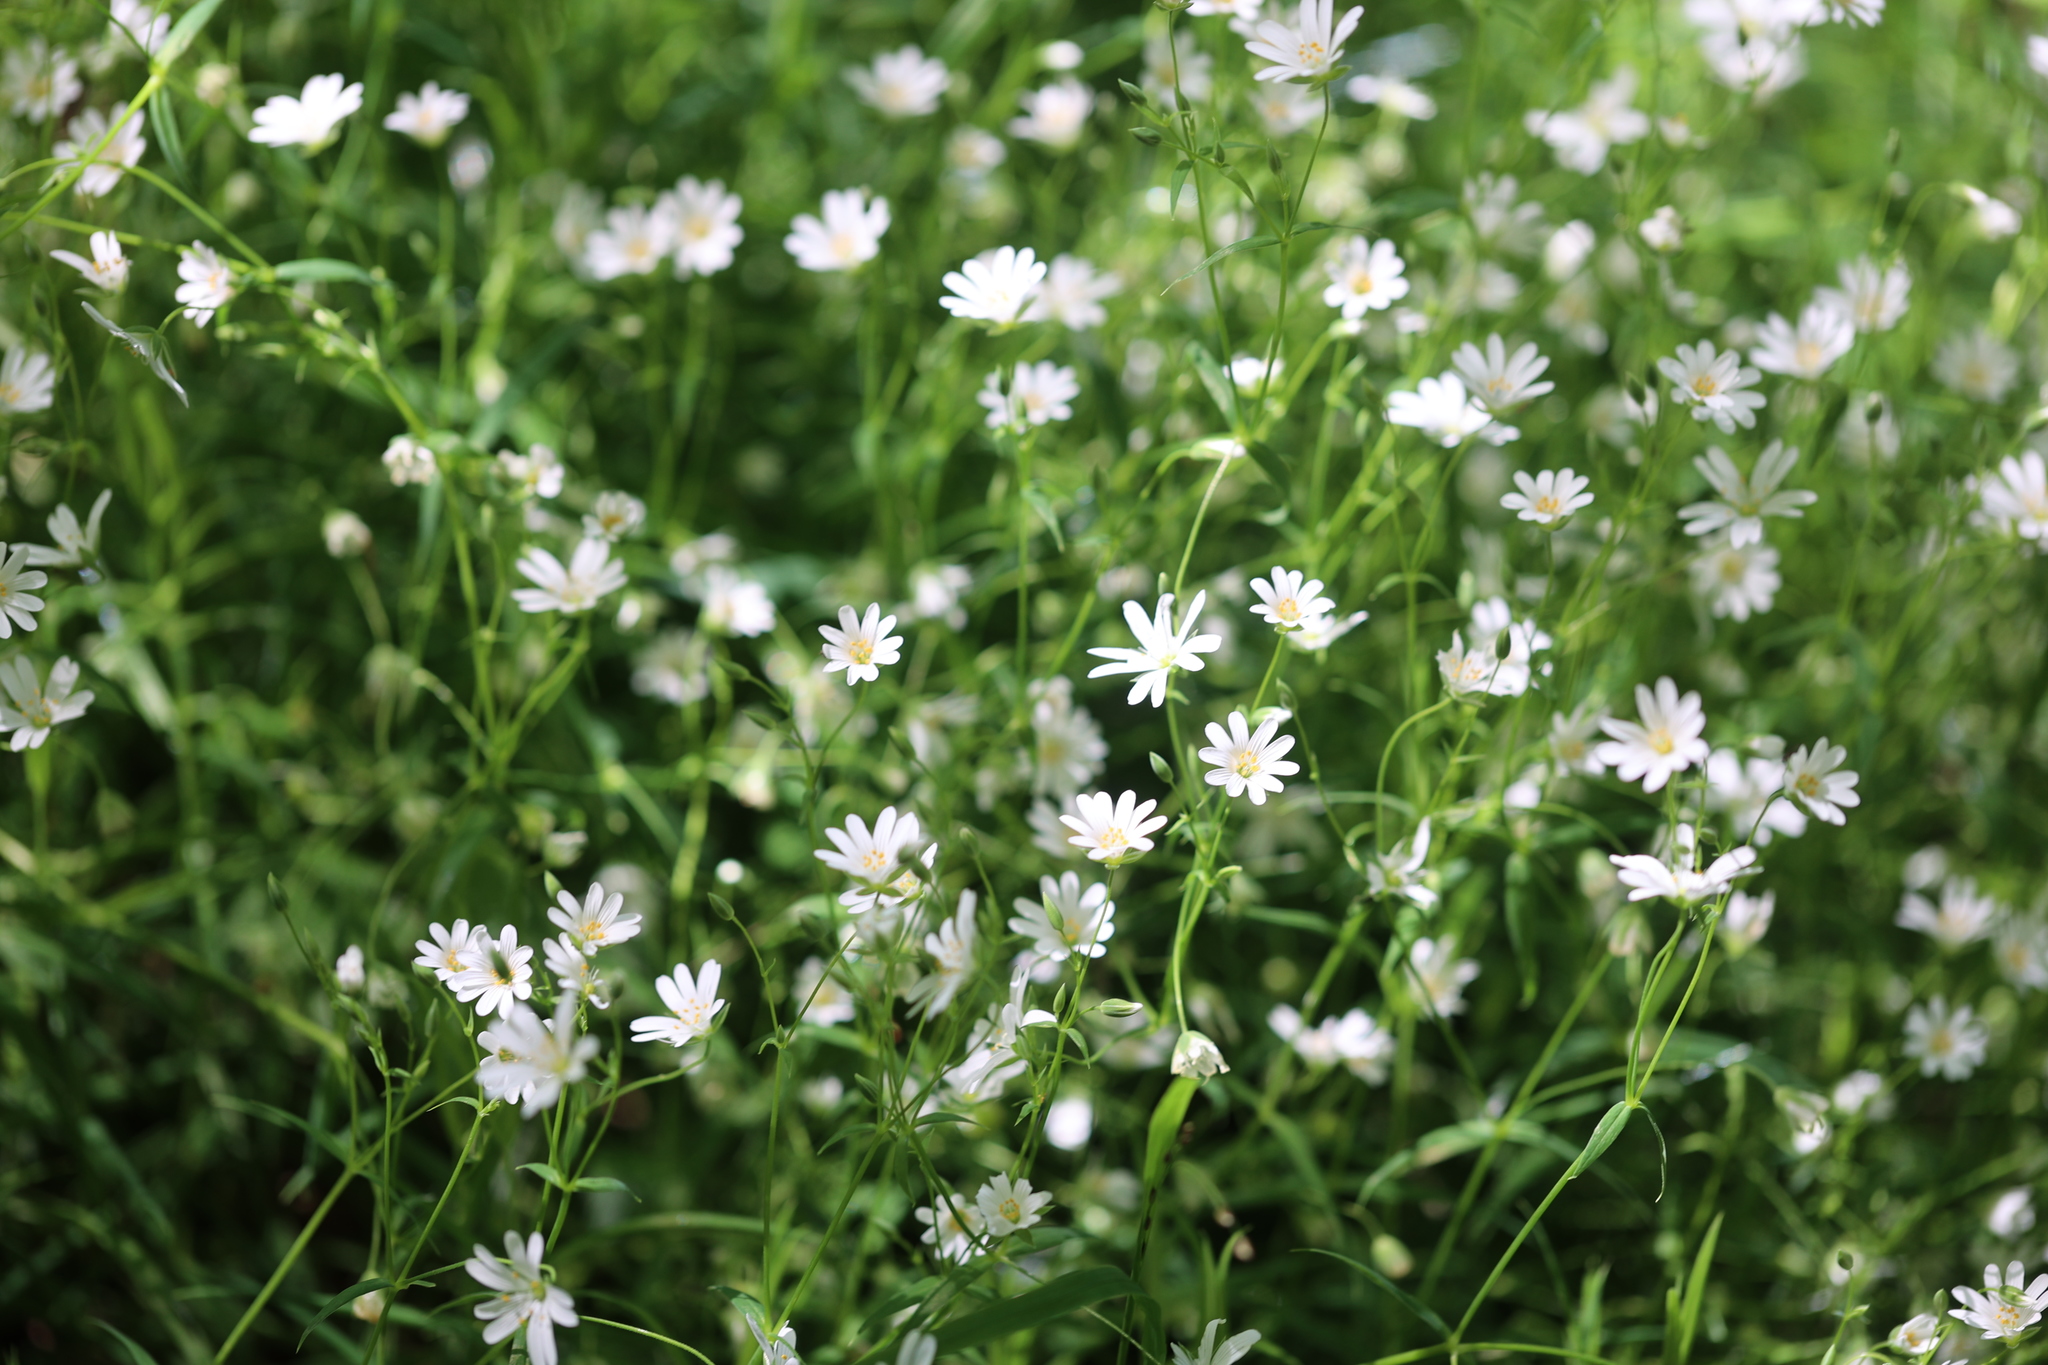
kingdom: Plantae
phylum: Tracheophyta
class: Magnoliopsida
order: Caryophyllales
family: Caryophyllaceae
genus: Rabelera
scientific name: Rabelera holostea
